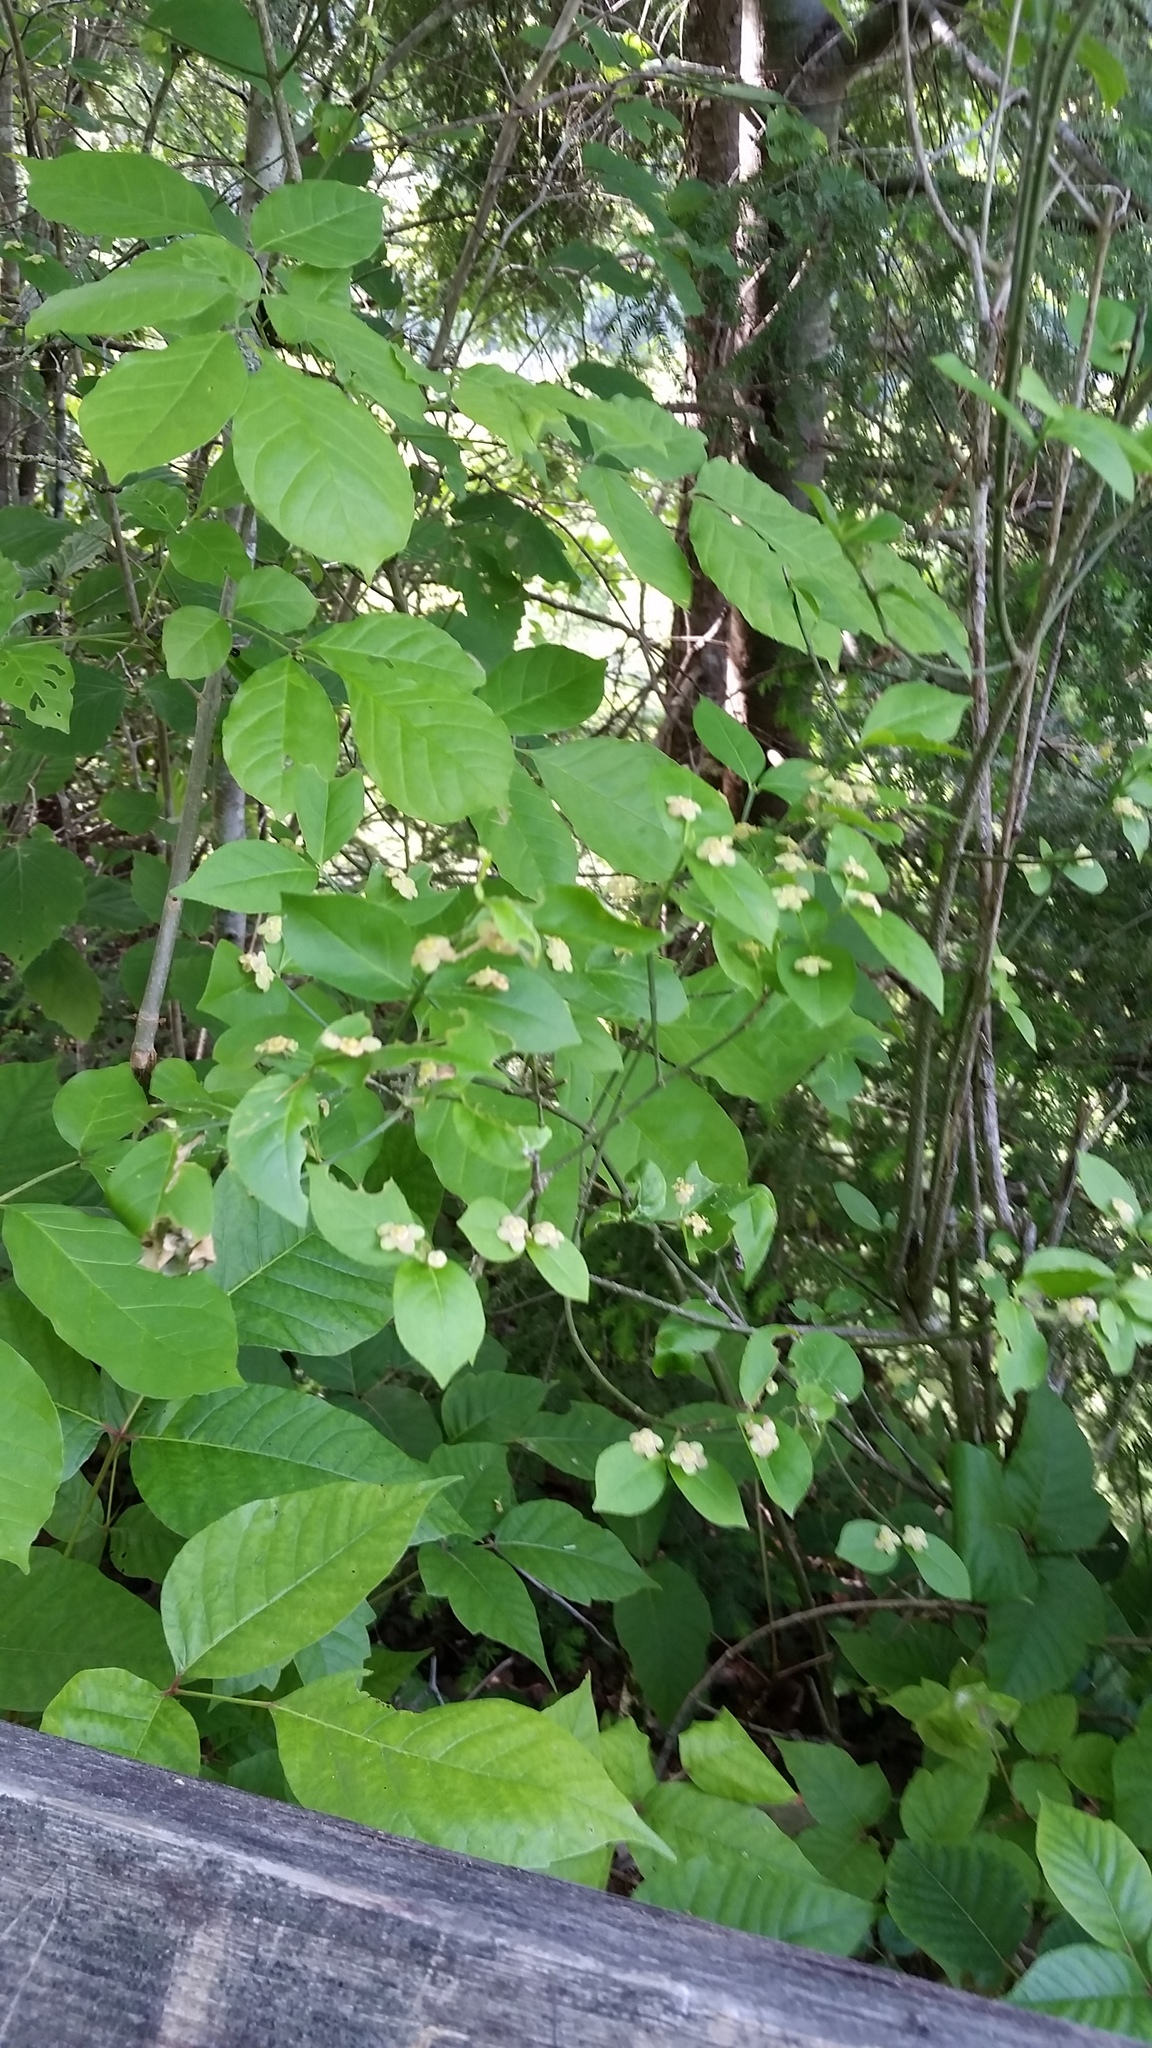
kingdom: Plantae
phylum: Tracheophyta
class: Magnoliopsida
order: Celastrales
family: Celastraceae
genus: Euonymus
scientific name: Euonymus americanus
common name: Bursting-heart
